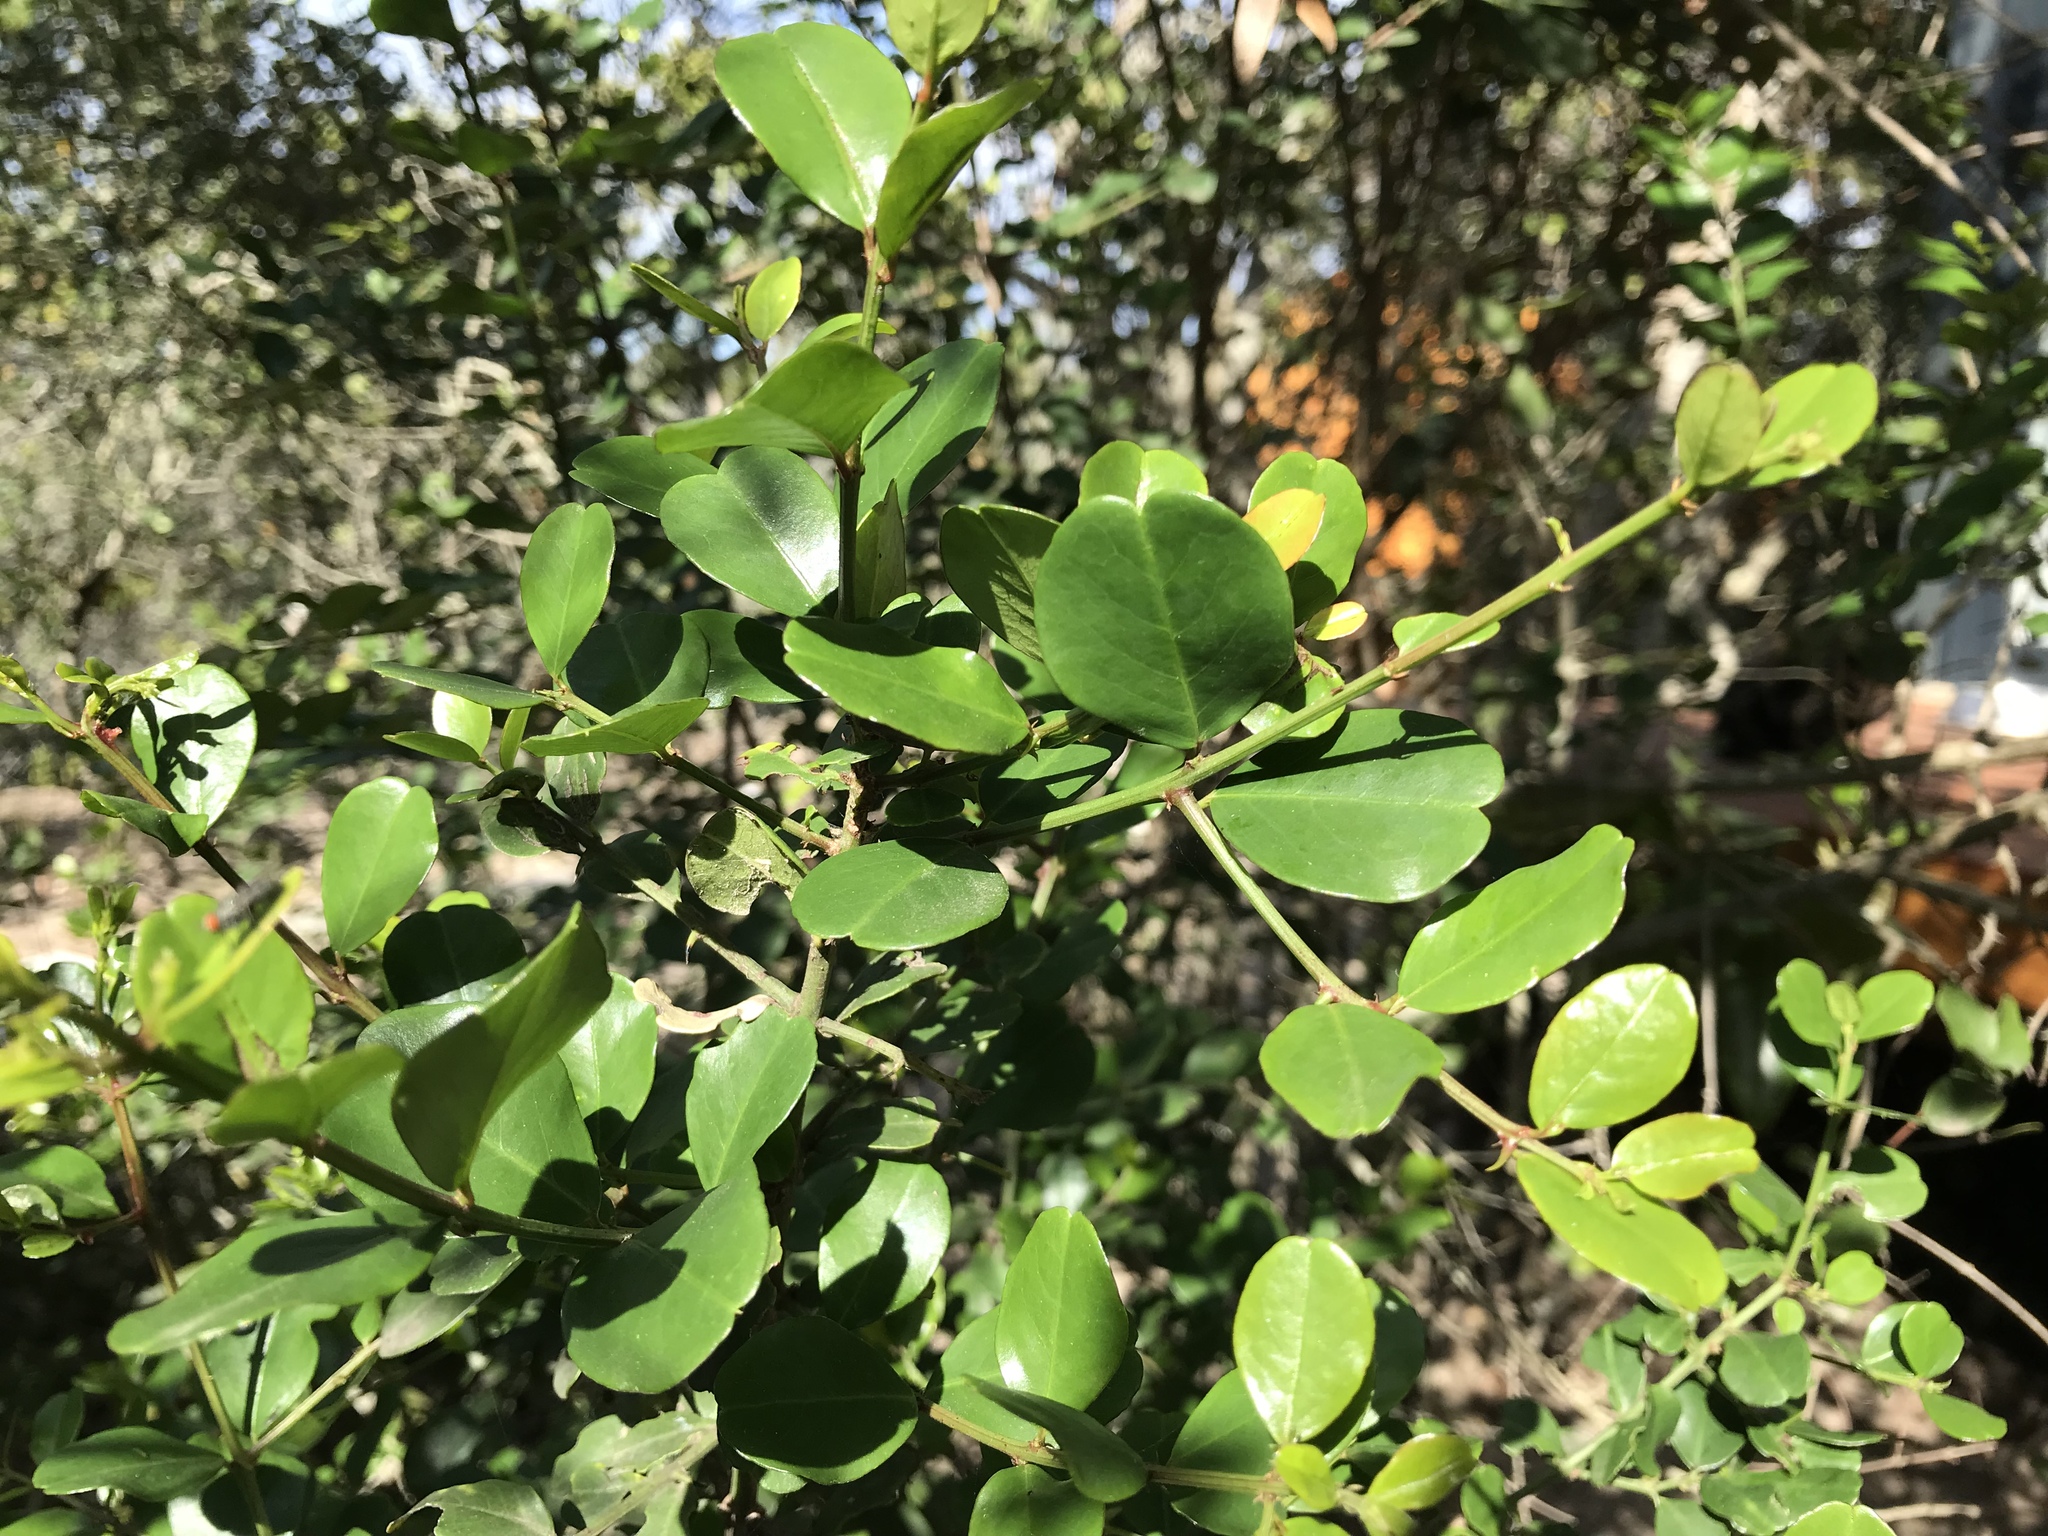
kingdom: Plantae
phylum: Tracheophyta
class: Magnoliopsida
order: Rosales
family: Rhamnaceae
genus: Scutia
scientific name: Scutia myrtina
